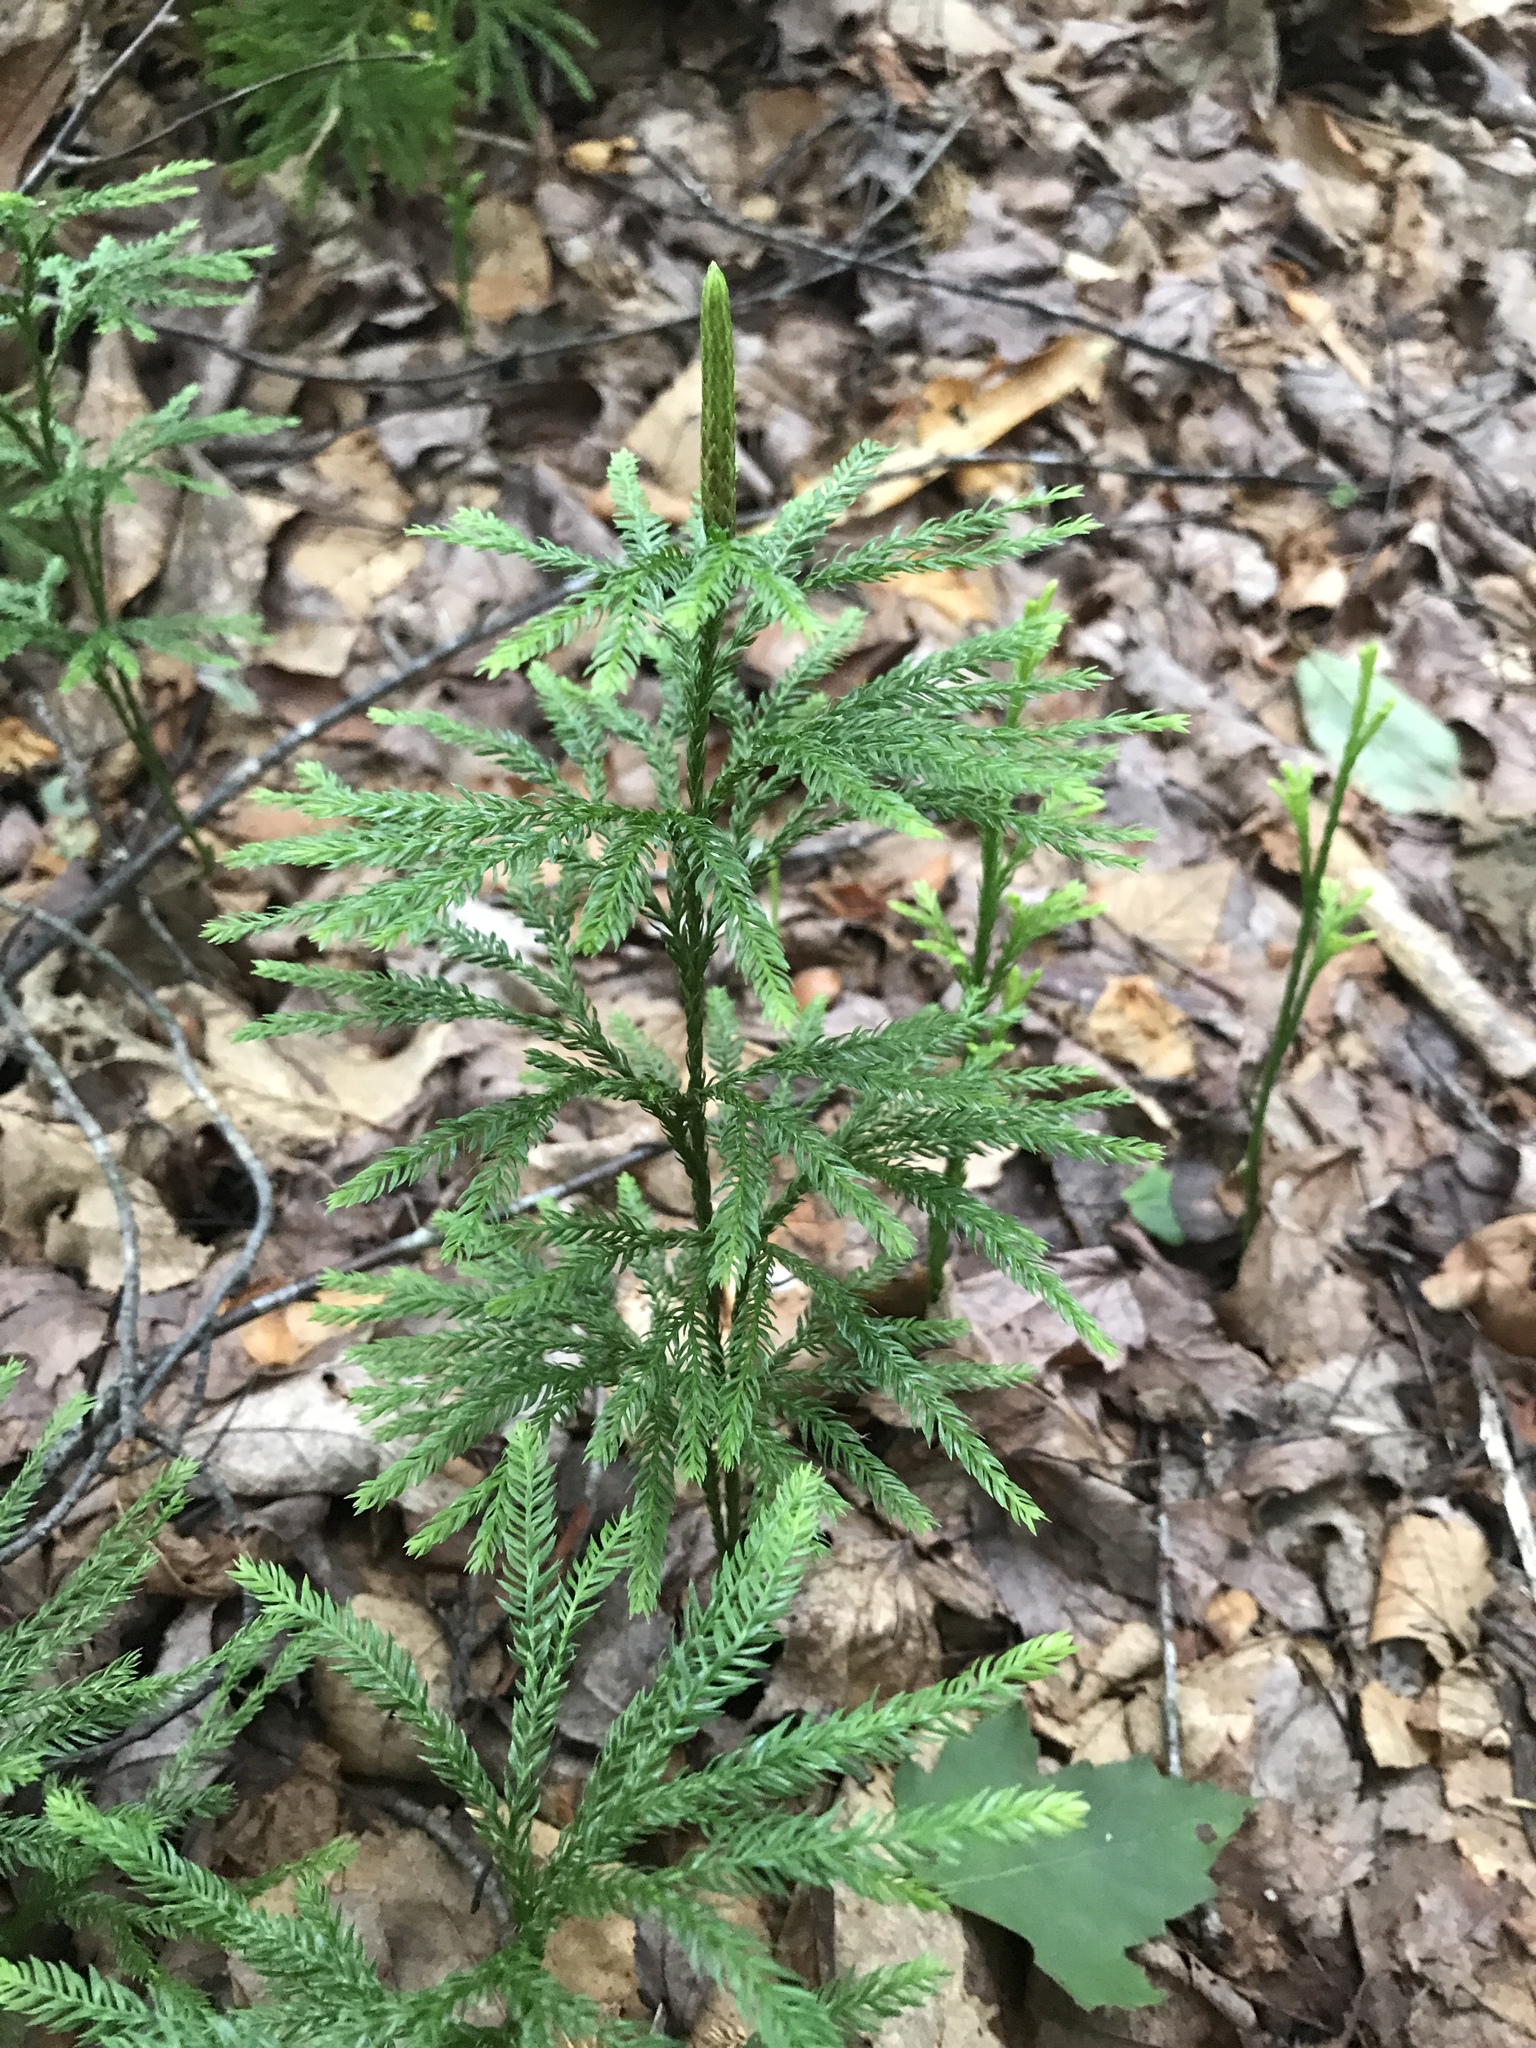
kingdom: Plantae
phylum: Tracheophyta
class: Lycopodiopsida
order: Lycopodiales
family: Lycopodiaceae
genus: Dendrolycopodium
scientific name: Dendrolycopodium obscurum
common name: Common ground-pine
